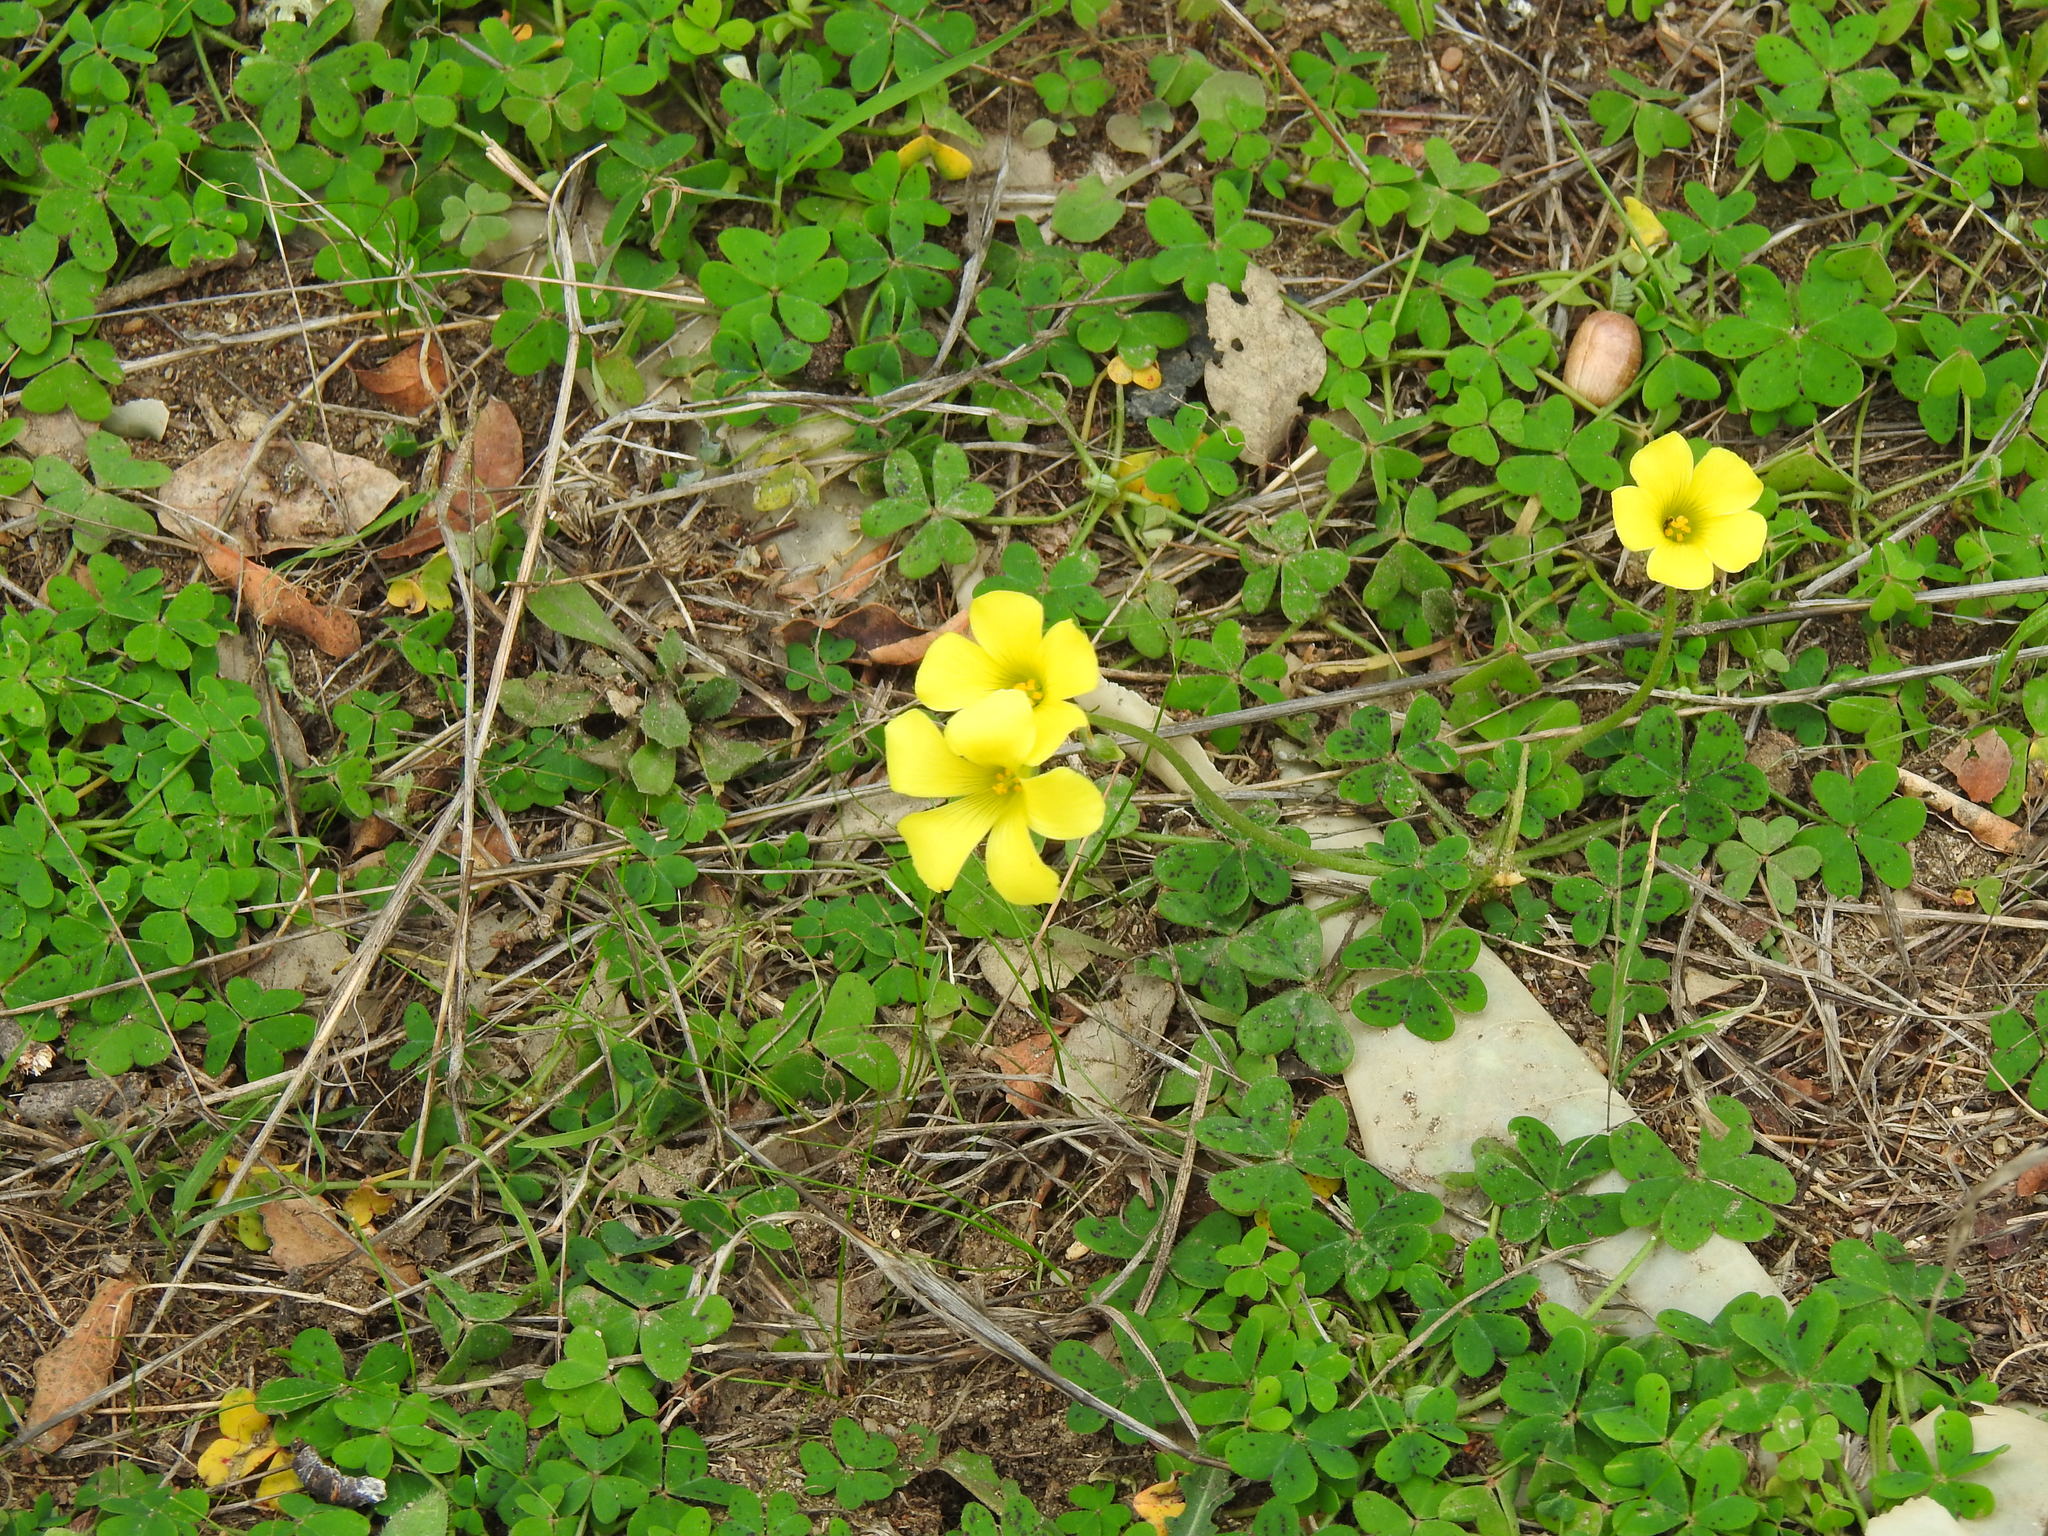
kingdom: Plantae
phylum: Tracheophyta
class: Magnoliopsida
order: Oxalidales
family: Oxalidaceae
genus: Oxalis
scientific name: Oxalis pes-caprae
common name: Bermuda-buttercup
